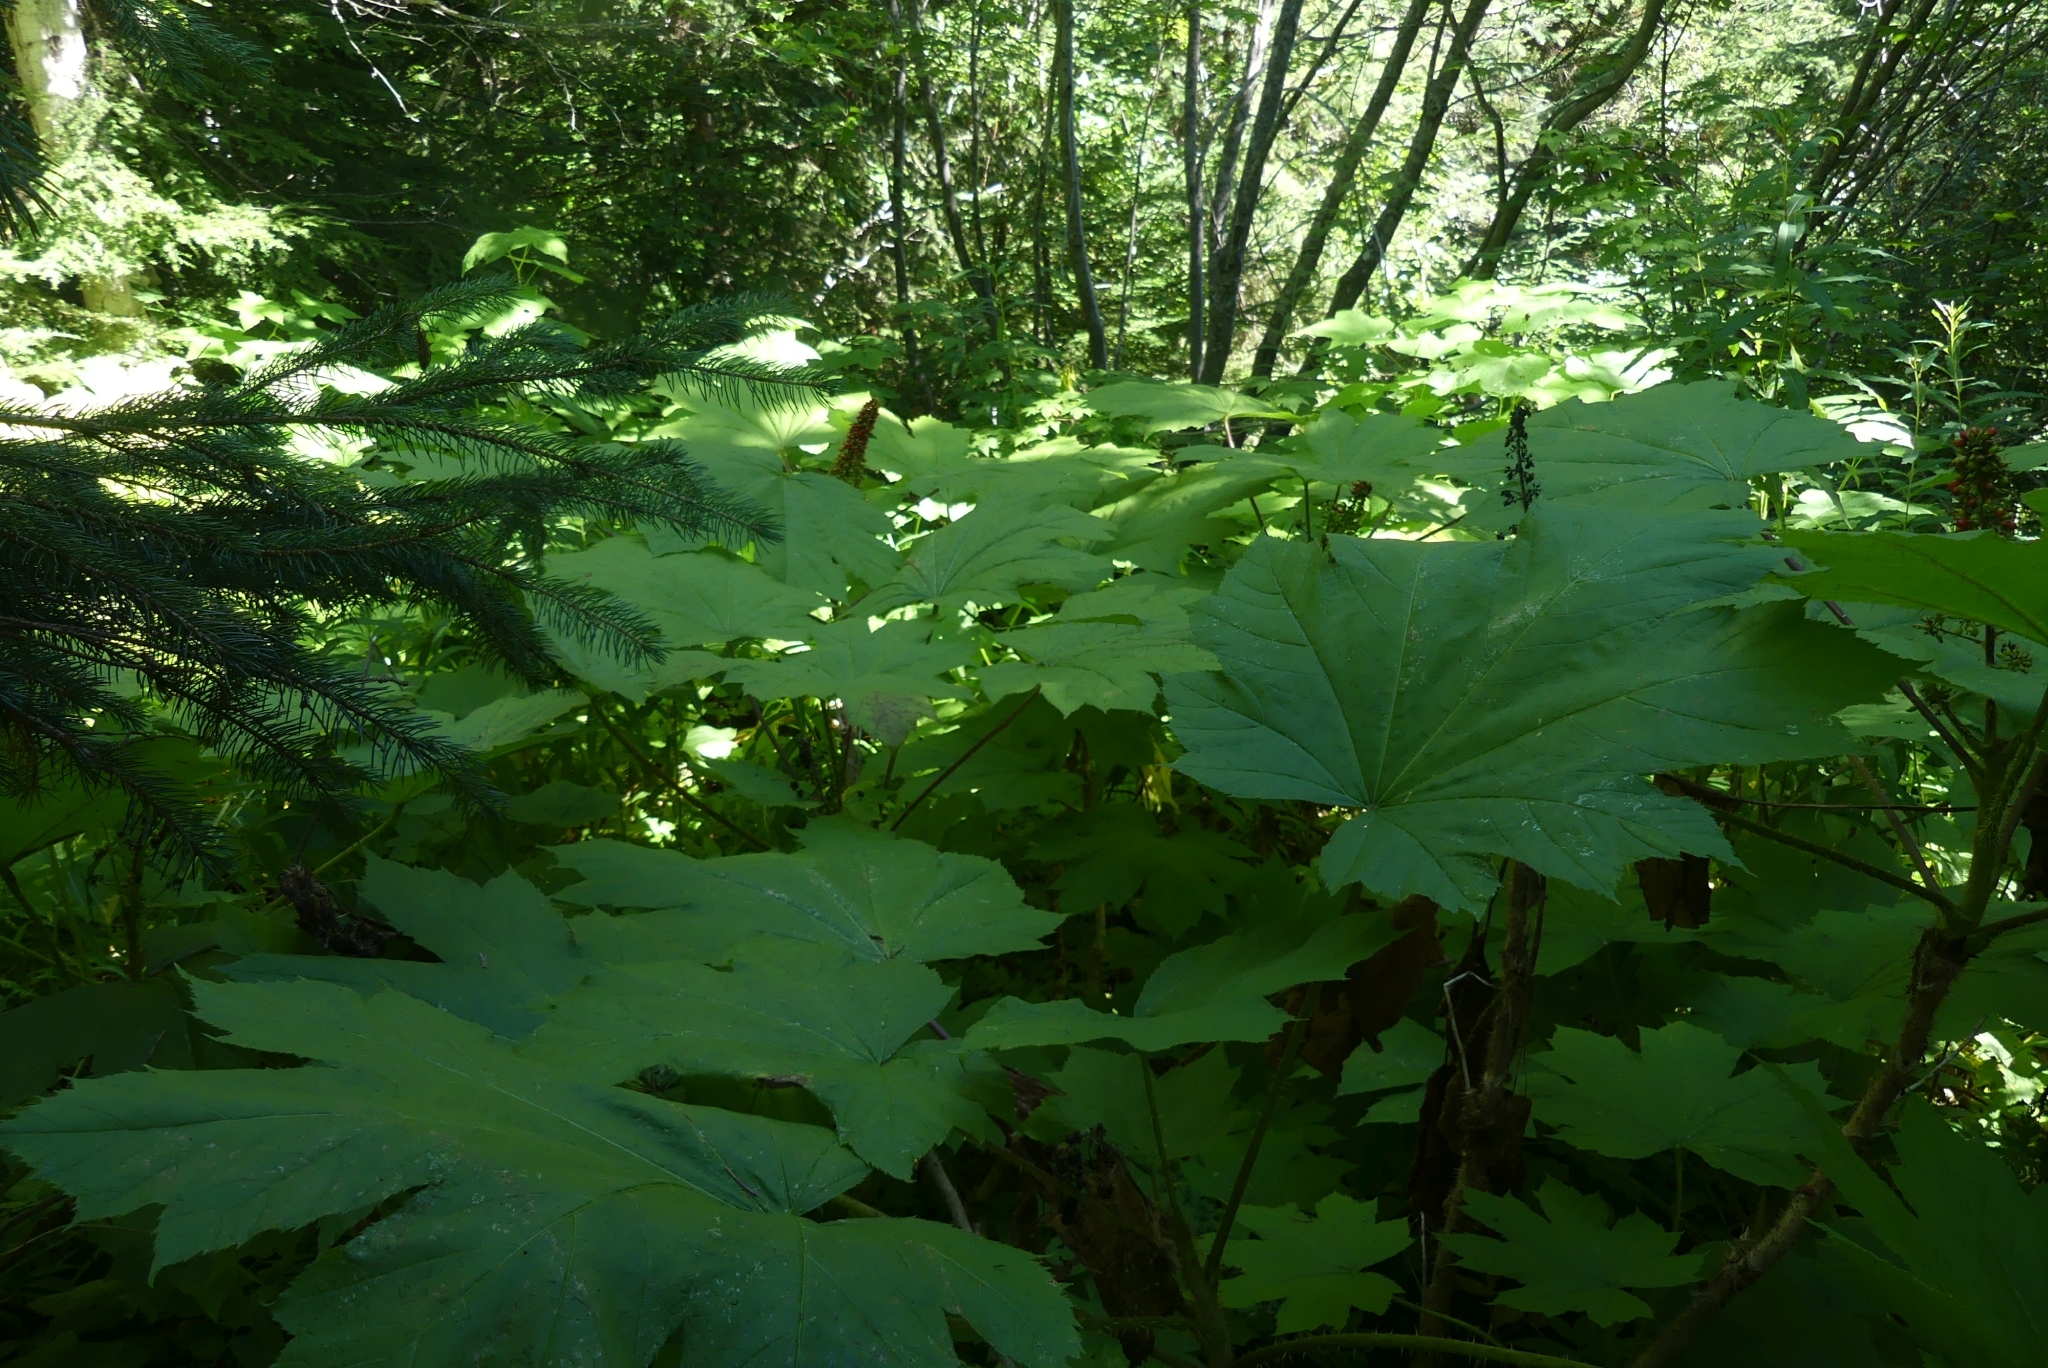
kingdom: Plantae
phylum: Tracheophyta
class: Magnoliopsida
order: Apiales
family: Araliaceae
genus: Oplopanax
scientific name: Oplopanax horridus
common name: Devil's walking-stick
